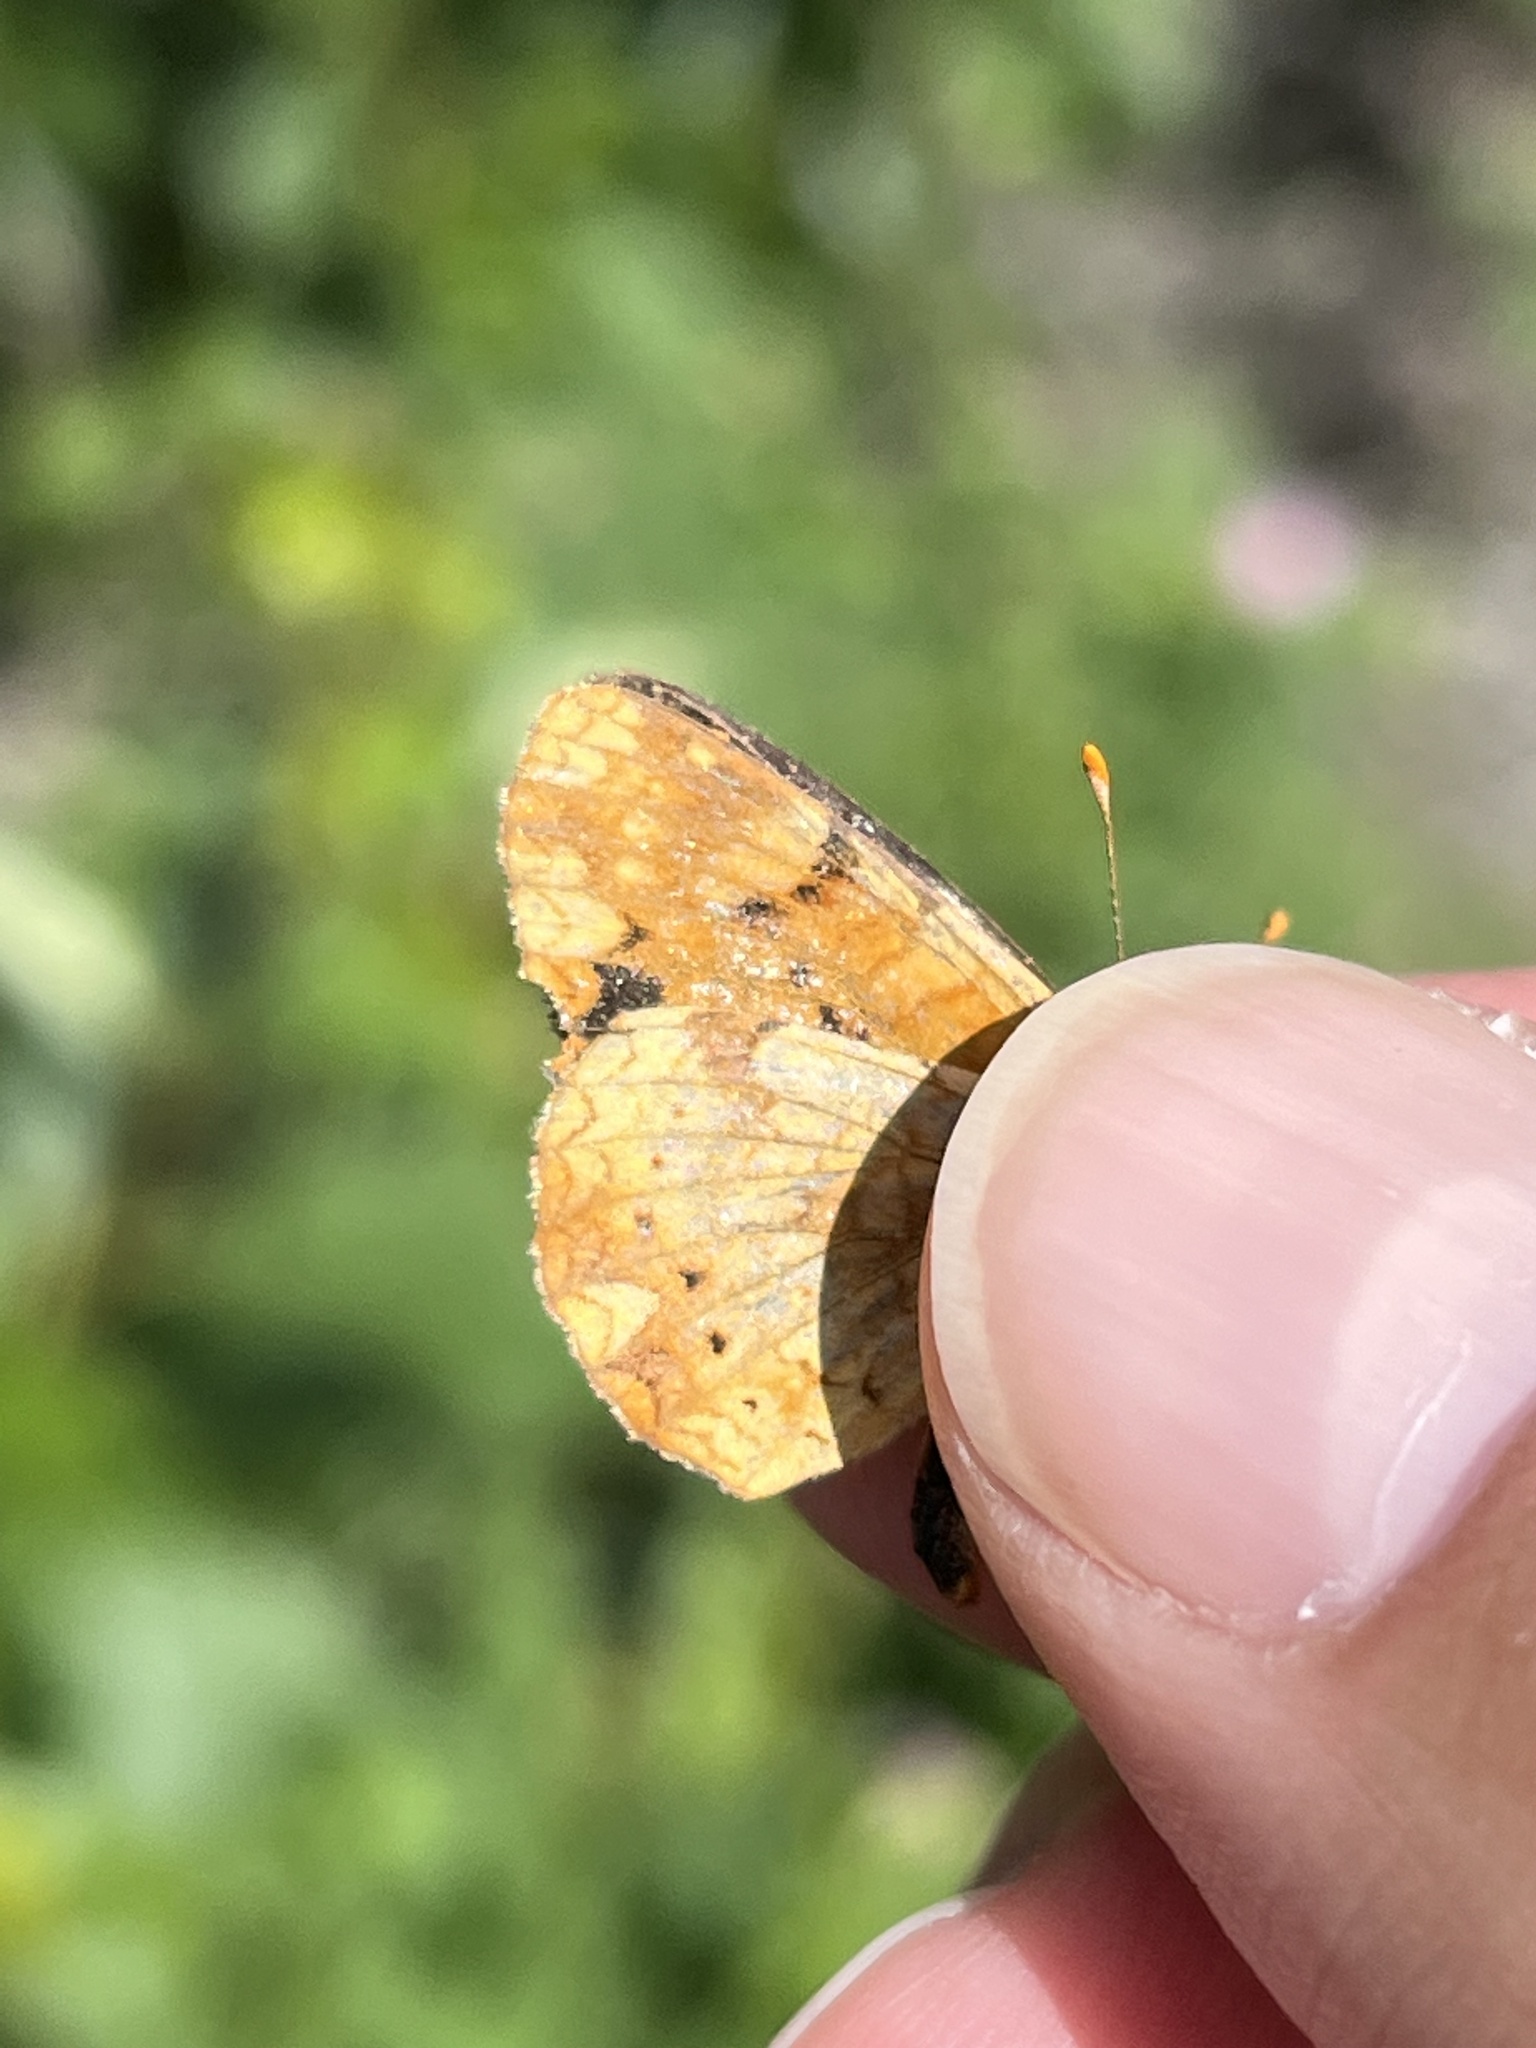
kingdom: Animalia
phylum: Arthropoda
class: Insecta
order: Lepidoptera
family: Nymphalidae
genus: Phyciodes
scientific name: Phyciodes tharos
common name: Pearl crescent
